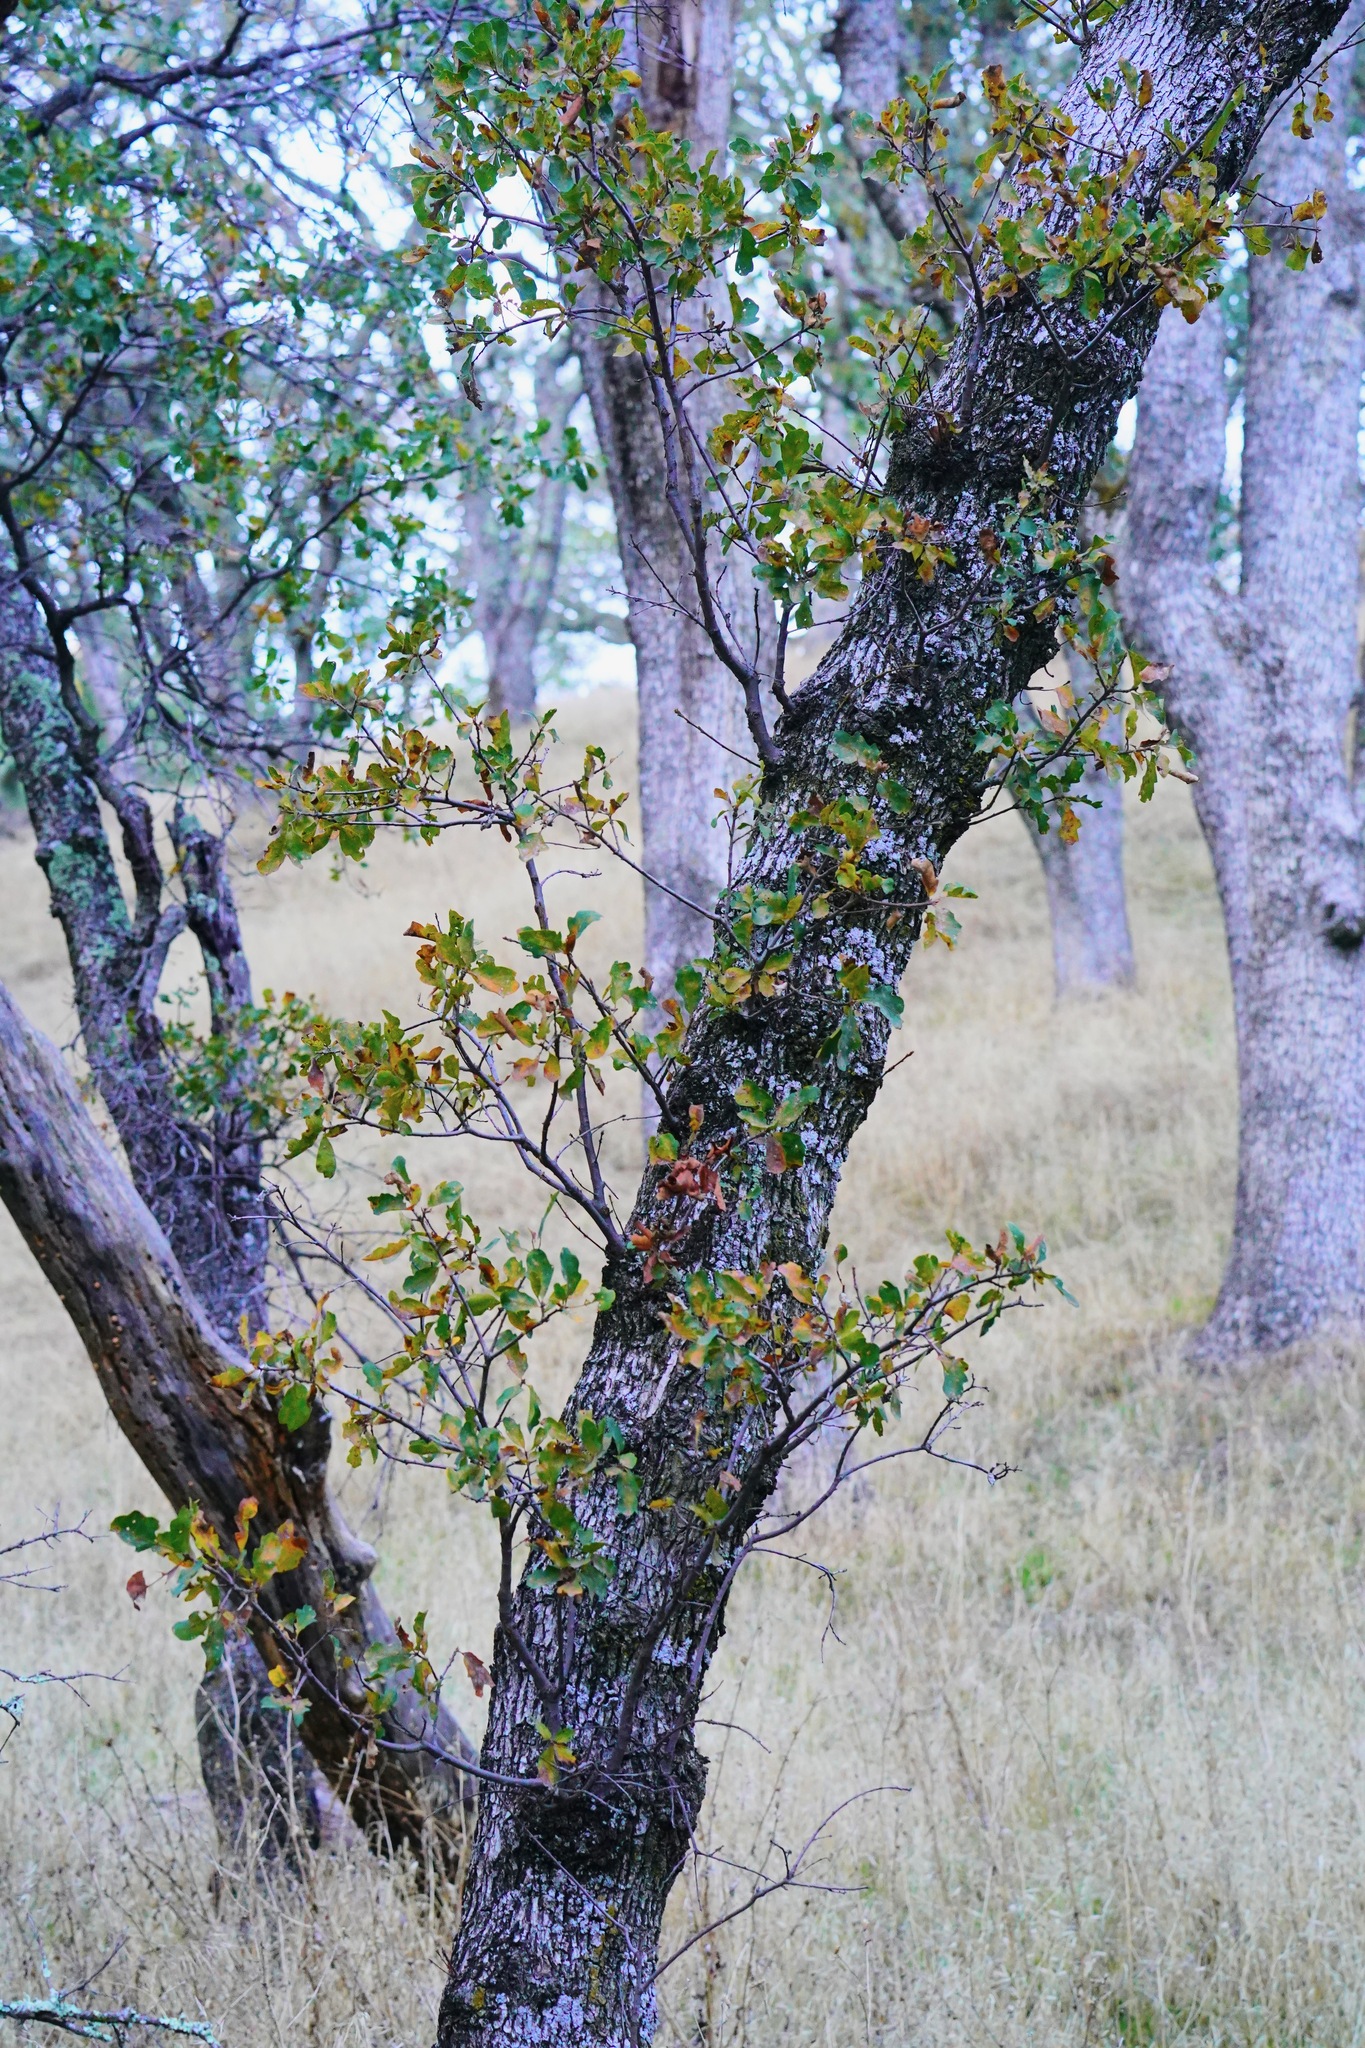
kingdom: Plantae
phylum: Tracheophyta
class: Magnoliopsida
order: Fagales
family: Fagaceae
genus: Quercus
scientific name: Quercus douglasii
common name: Blue oak
